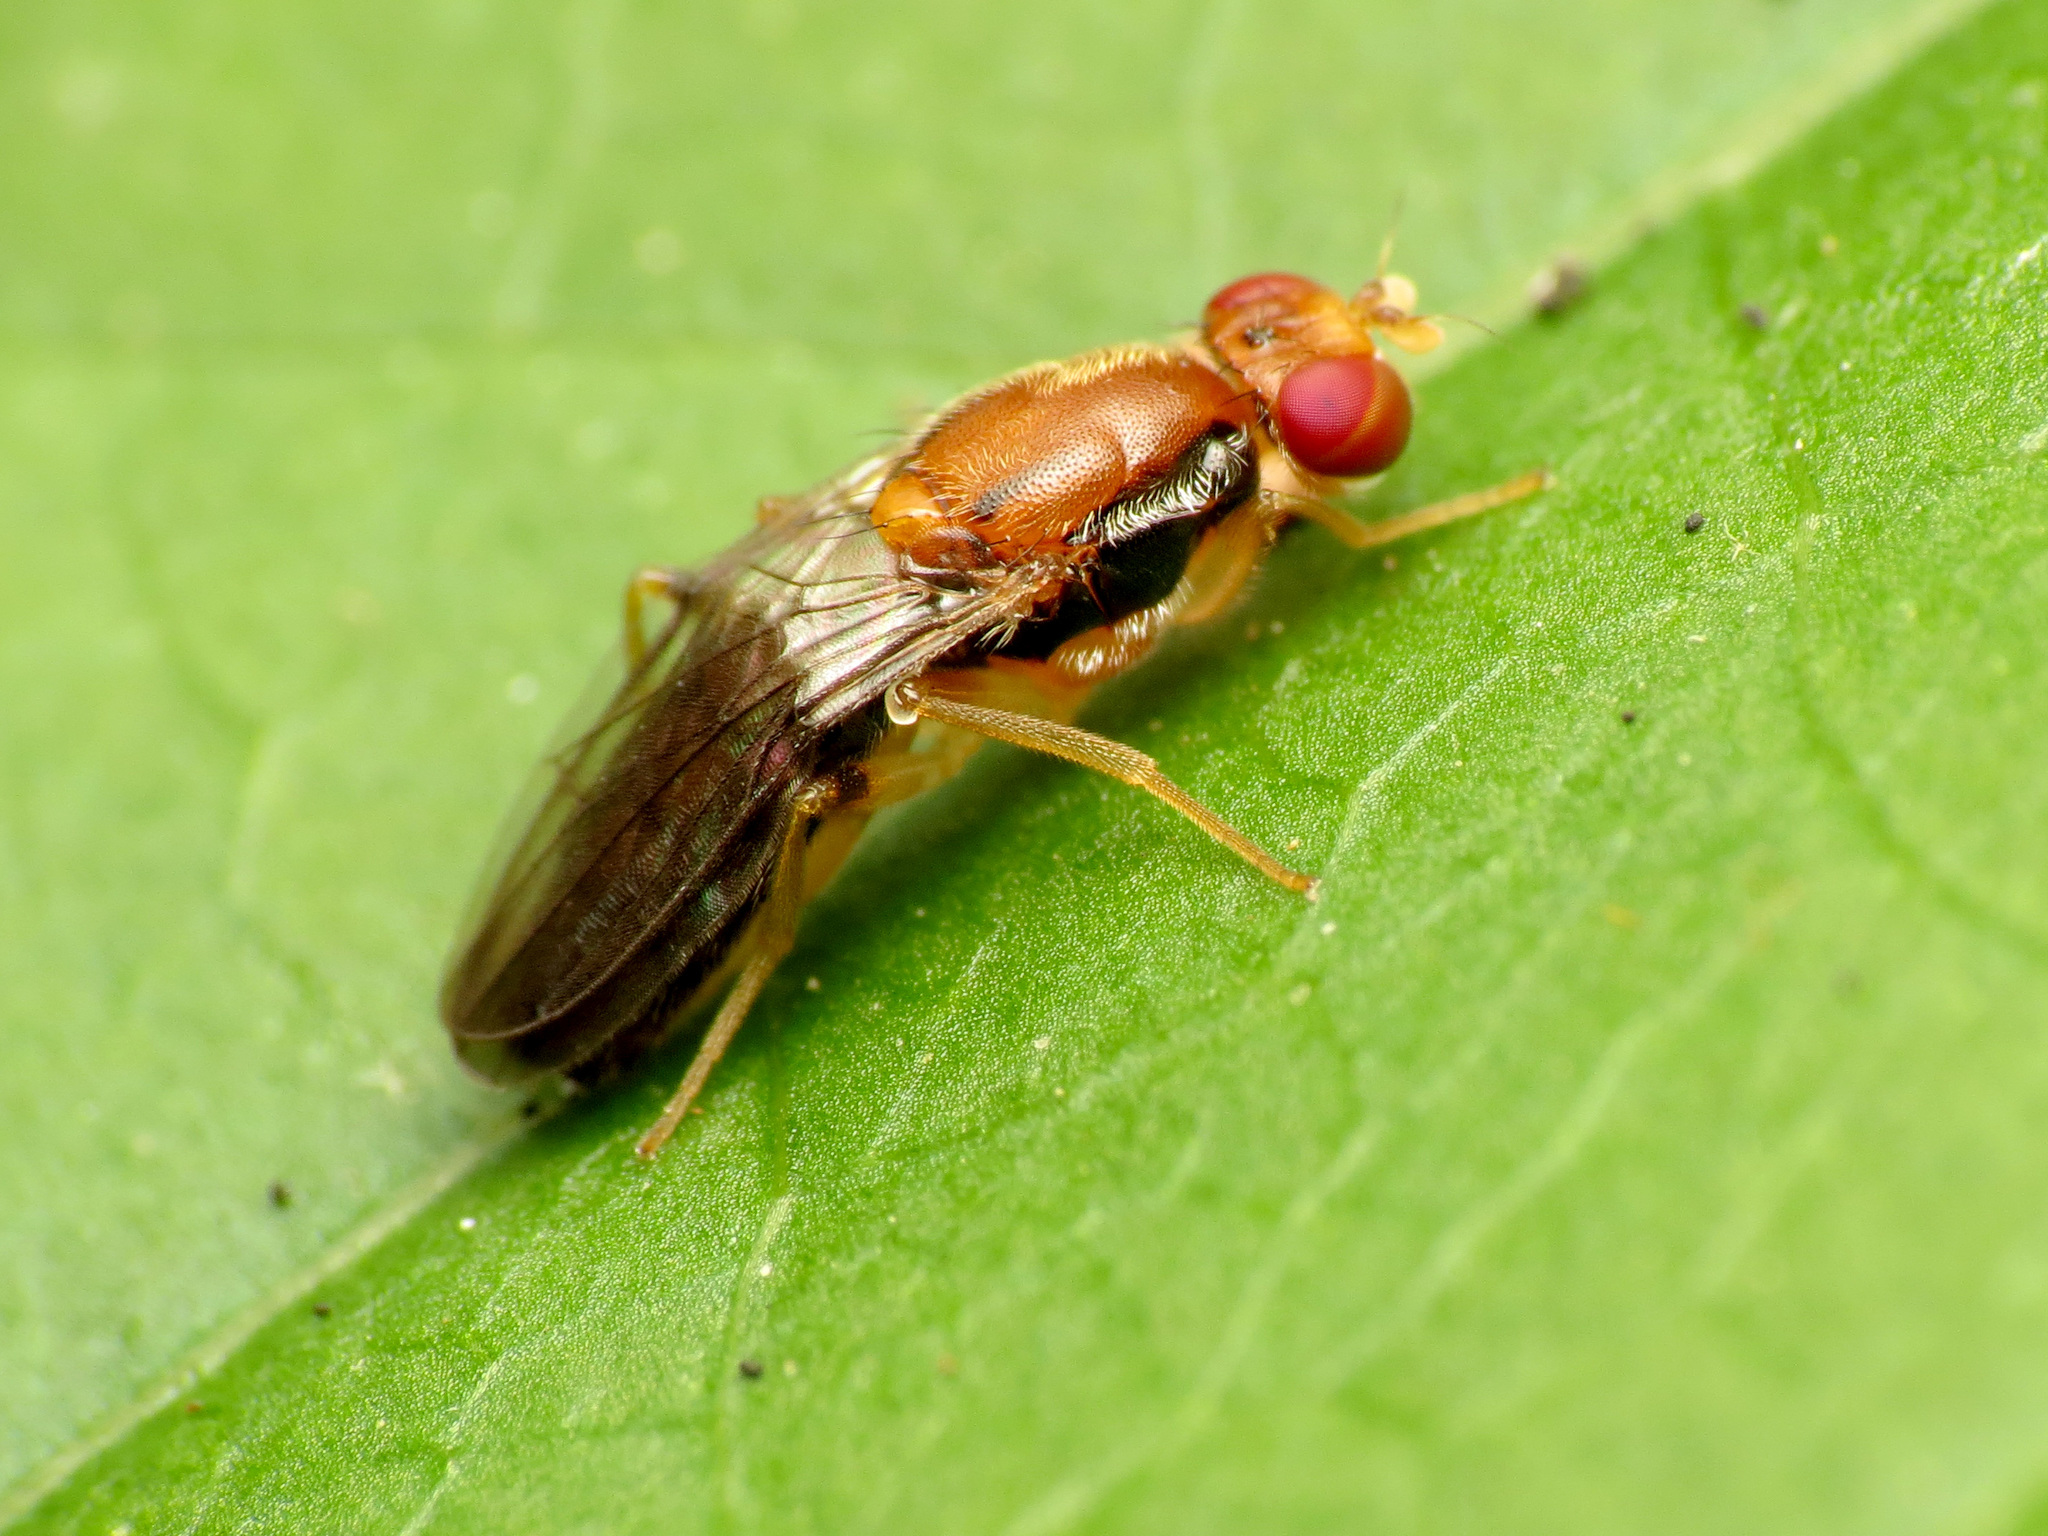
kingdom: Animalia
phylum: Arthropoda
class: Insecta
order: Diptera
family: Psilidae
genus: Chyliza
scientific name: Chyliza apicalis
